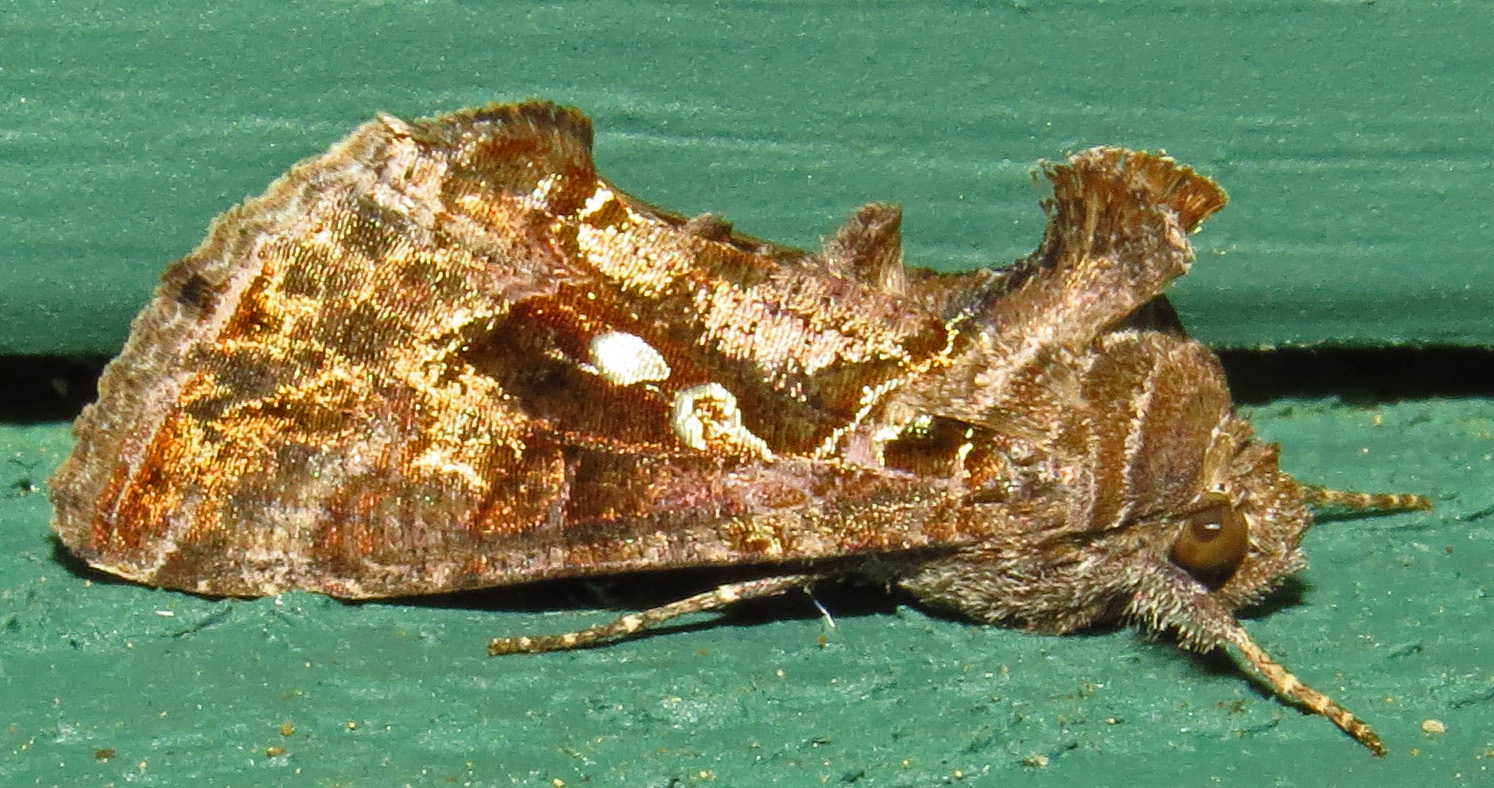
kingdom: Animalia
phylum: Arthropoda
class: Insecta
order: Lepidoptera
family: Noctuidae
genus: Chrysodeixis
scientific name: Chrysodeixis includens
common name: Cutworm moth
